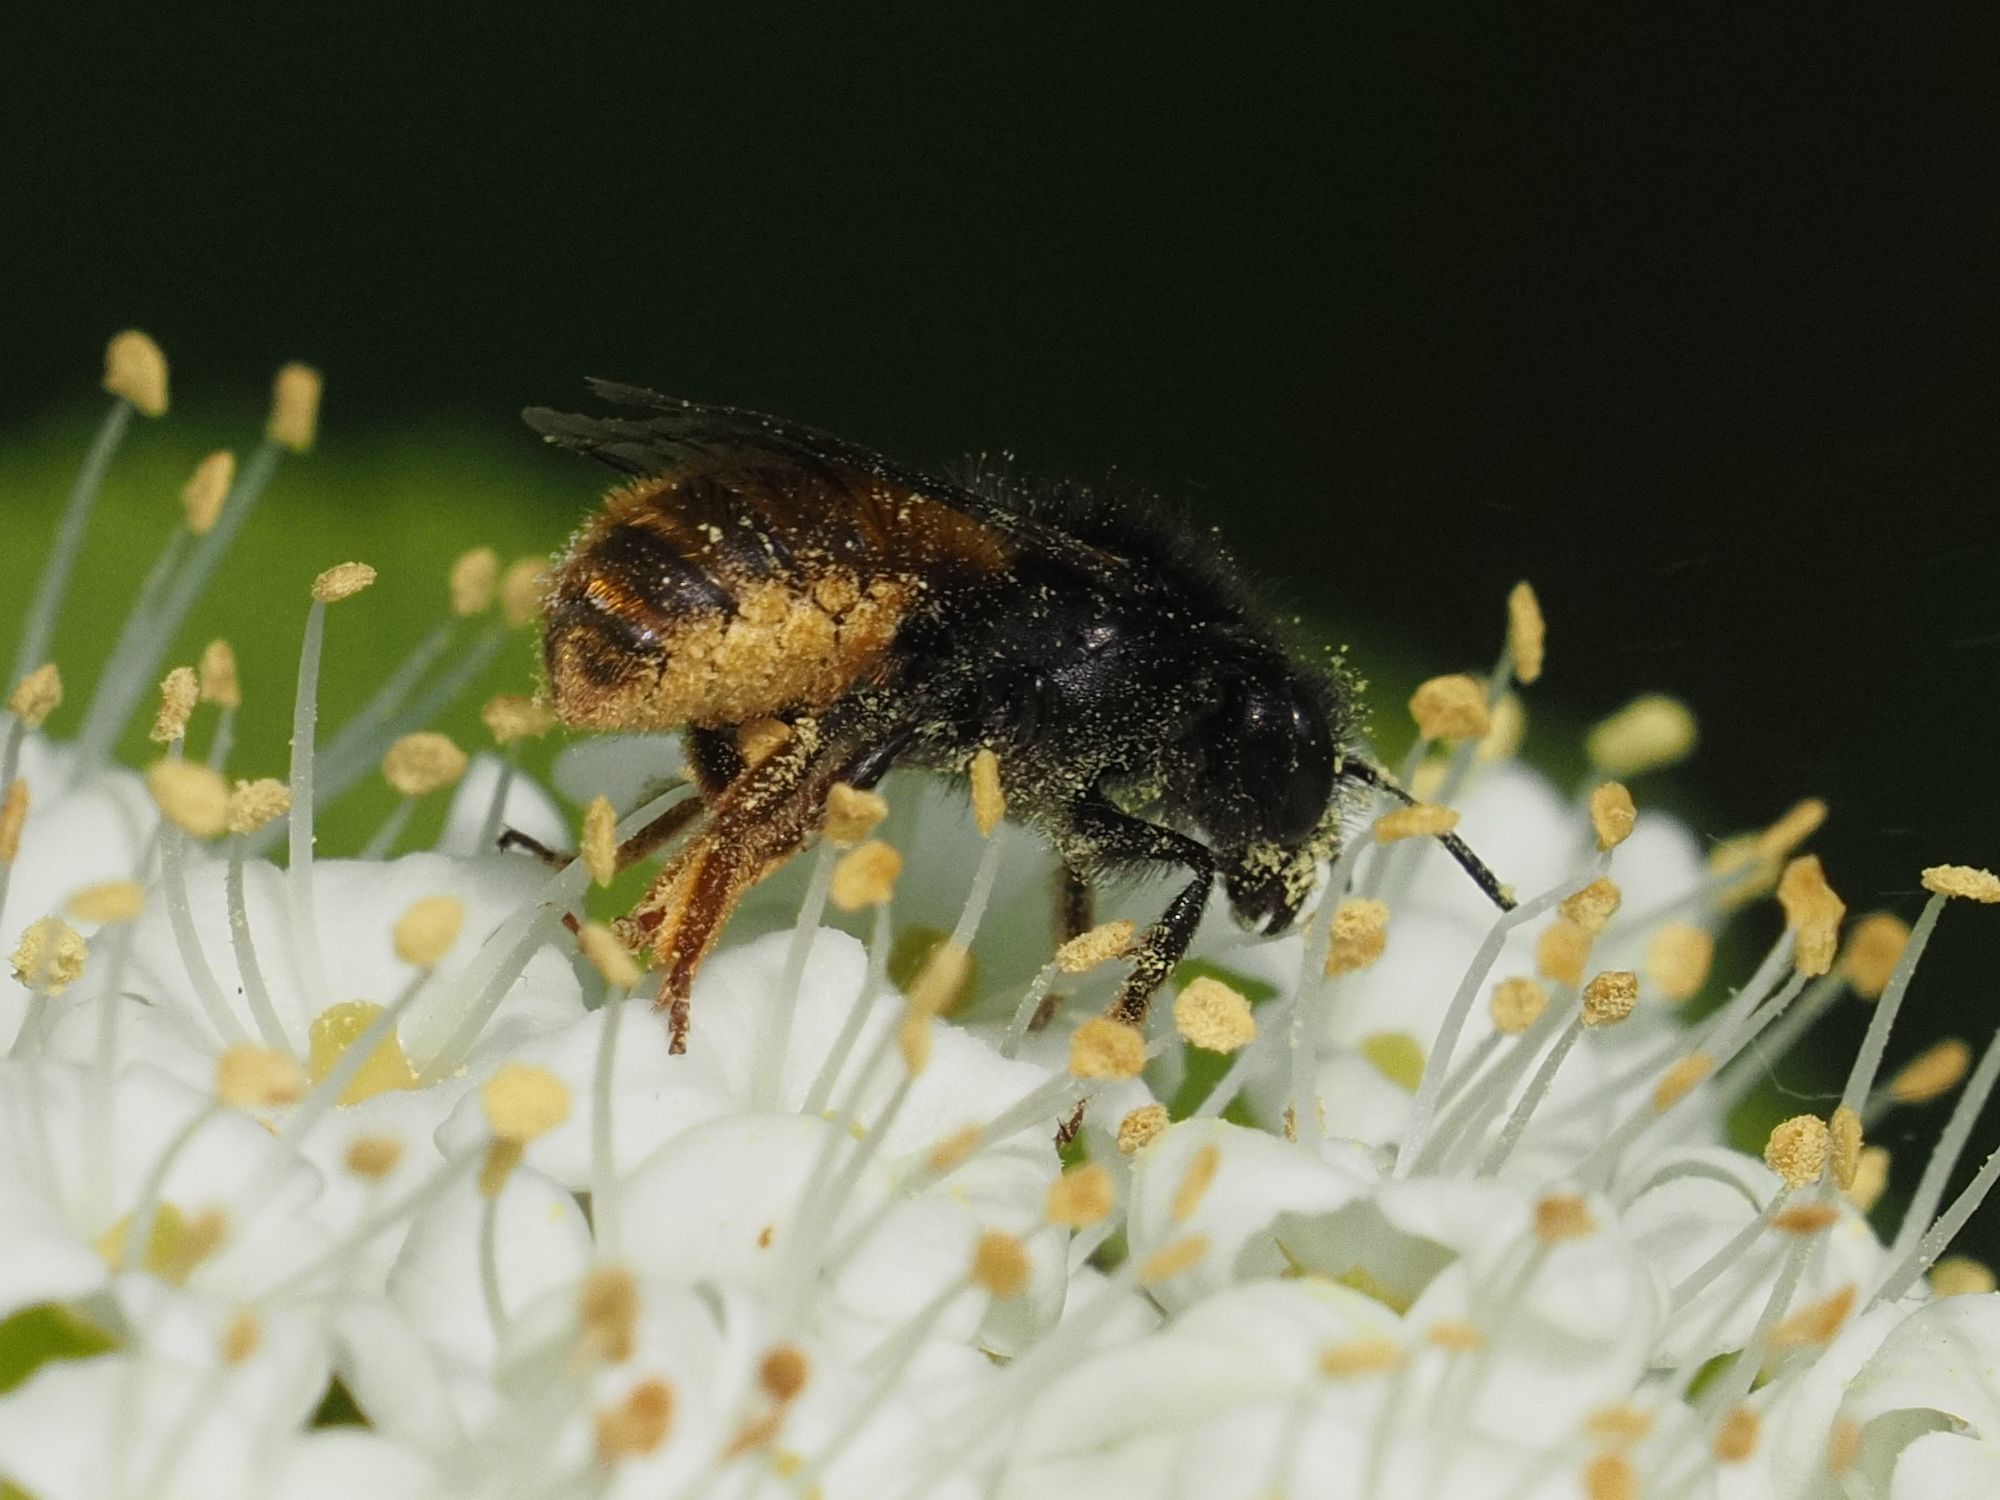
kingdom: Animalia
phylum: Arthropoda
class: Insecta
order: Hymenoptera
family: Megachilidae
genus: Osmia
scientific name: Osmia bicolor
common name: Red-tailed mason bee
